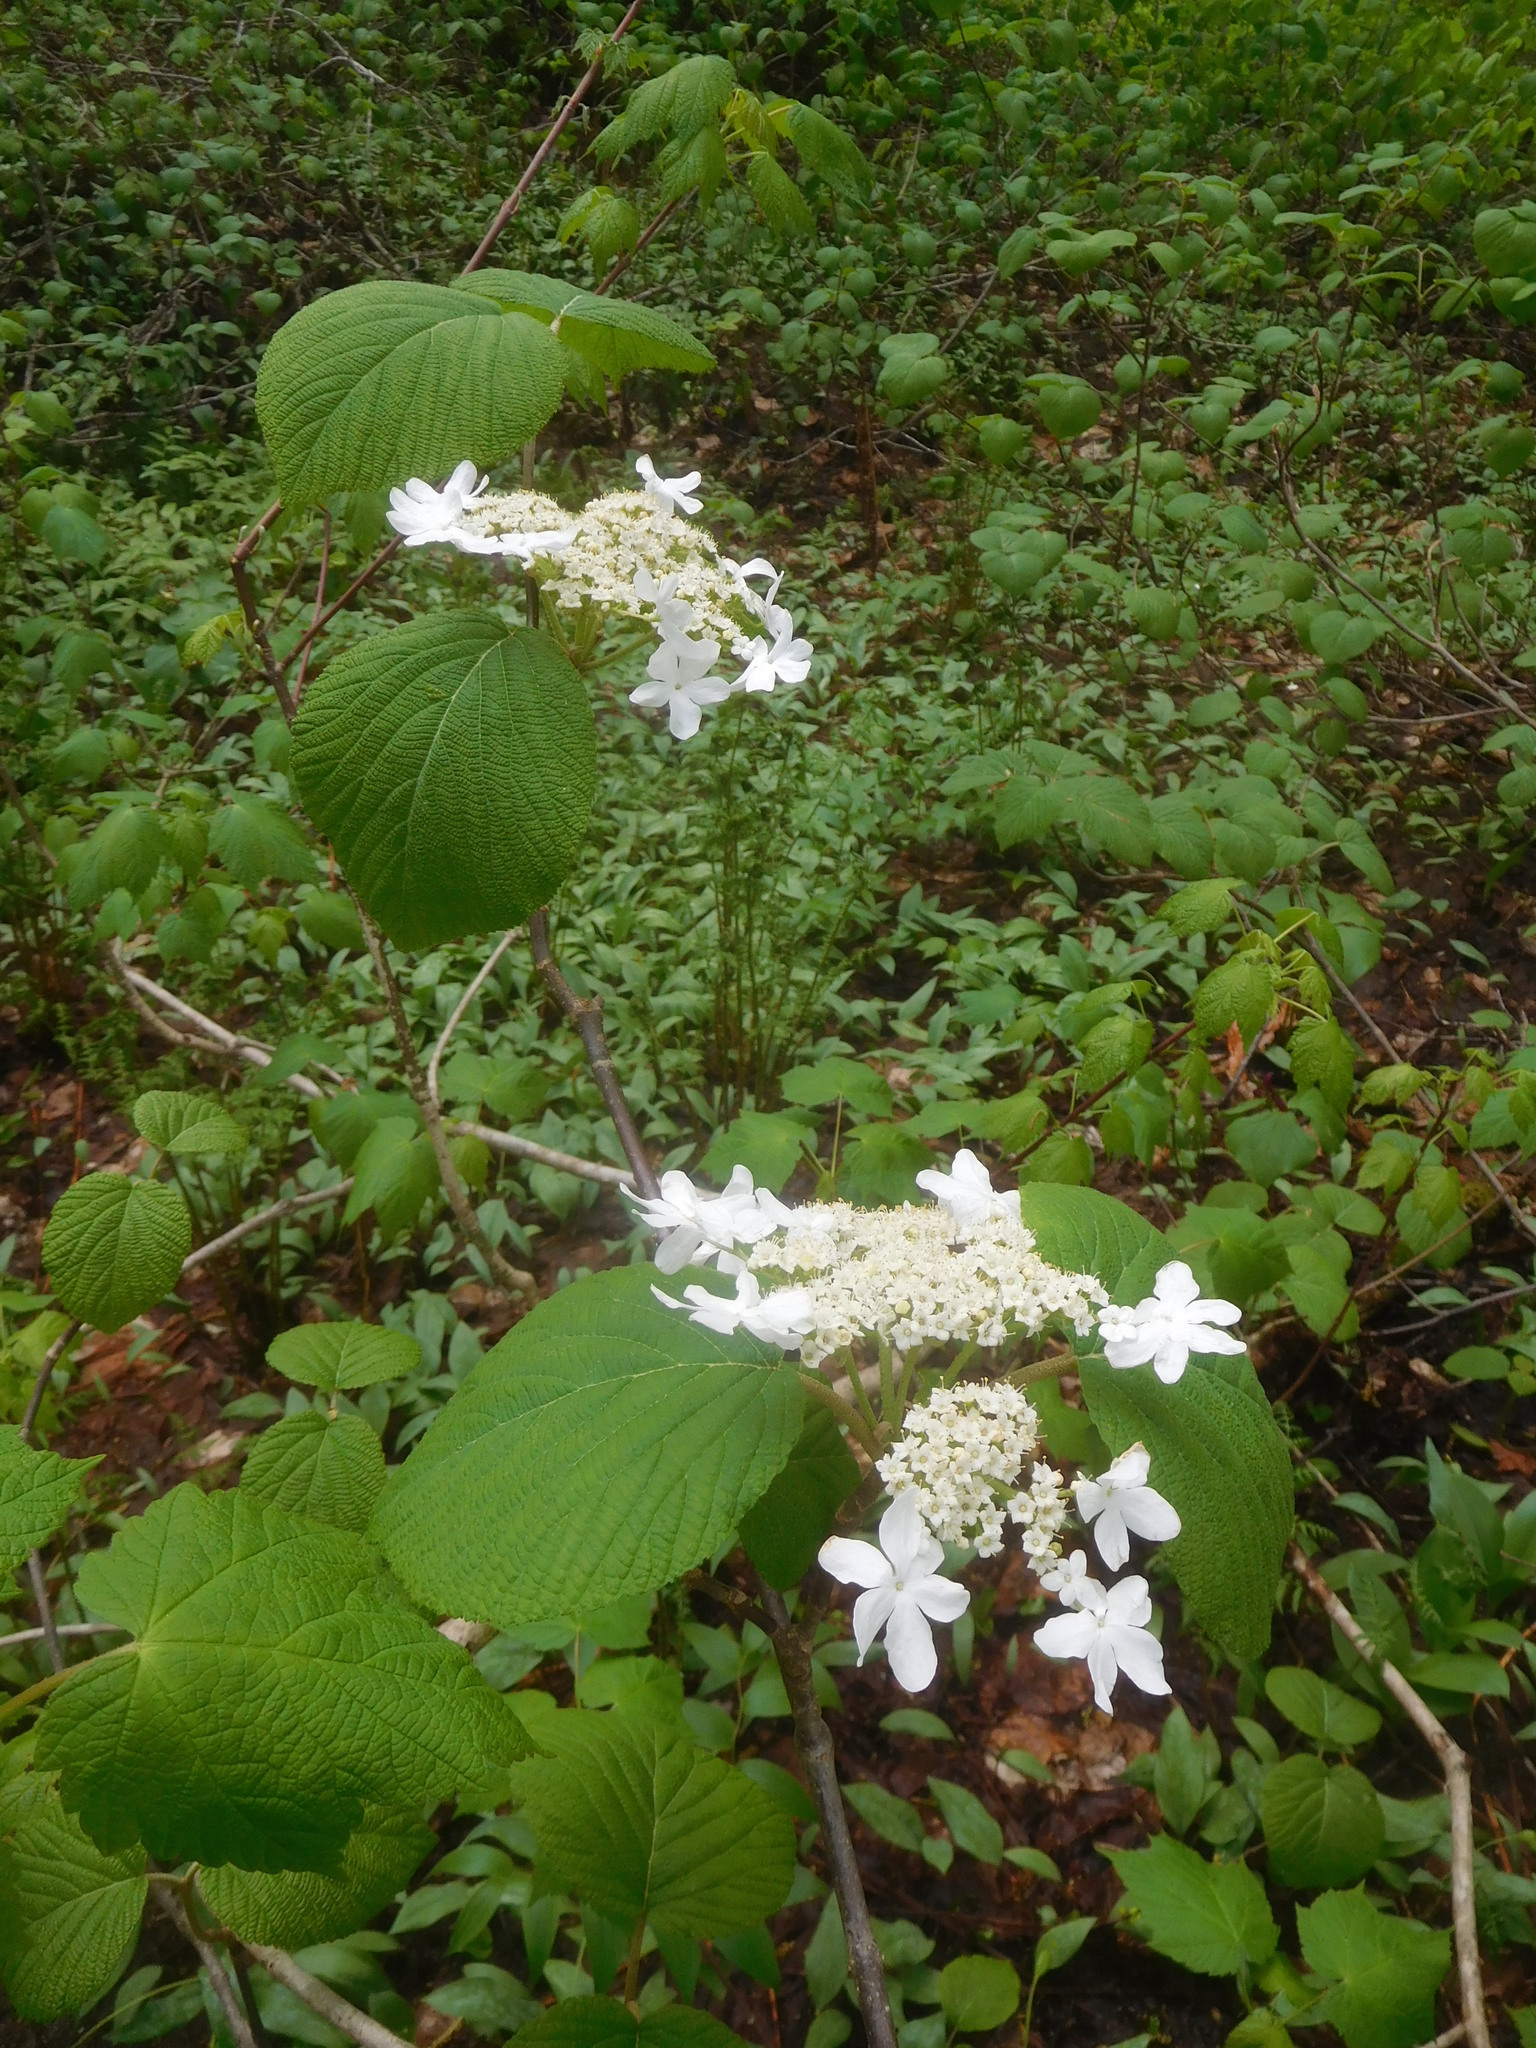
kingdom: Plantae
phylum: Tracheophyta
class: Magnoliopsida
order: Dipsacales
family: Viburnaceae
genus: Viburnum
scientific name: Viburnum lantanoides
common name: Hobblebush
